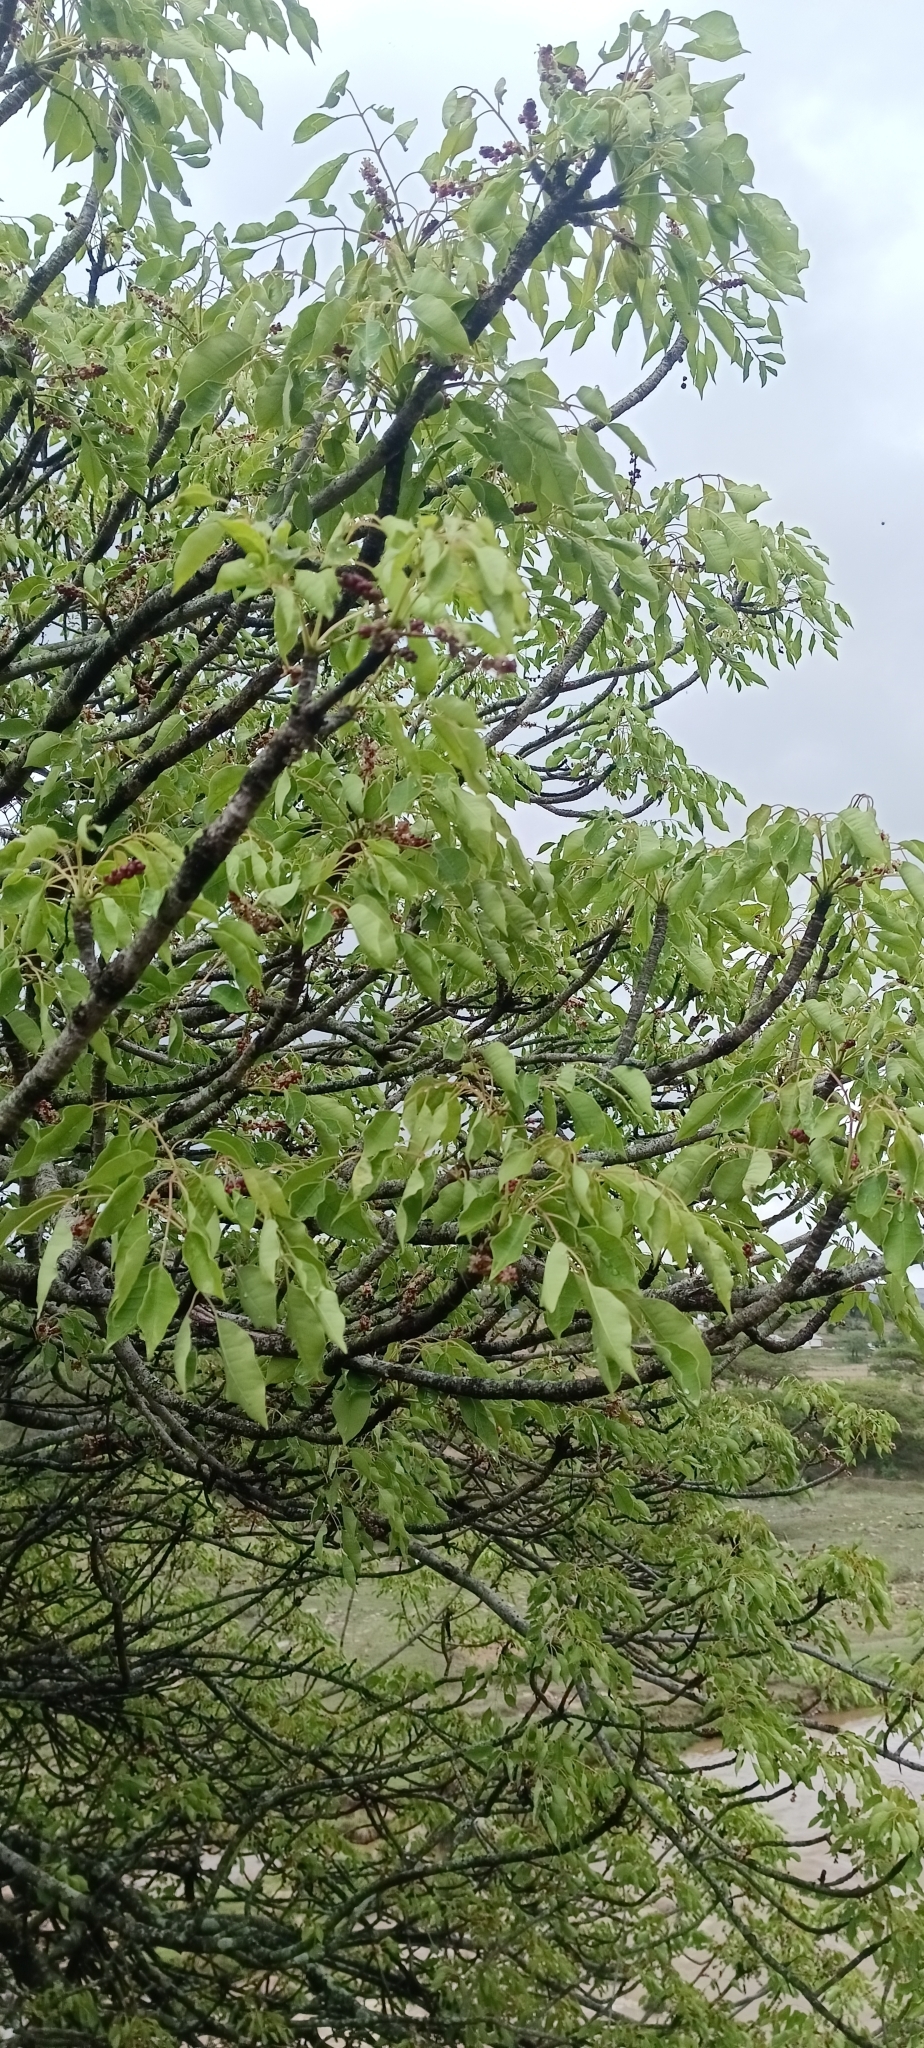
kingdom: Plantae
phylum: Tracheophyta
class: Magnoliopsida
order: Sapindales
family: Anacardiaceae
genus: Sclerocarya
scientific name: Sclerocarya birrea
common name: Marula
